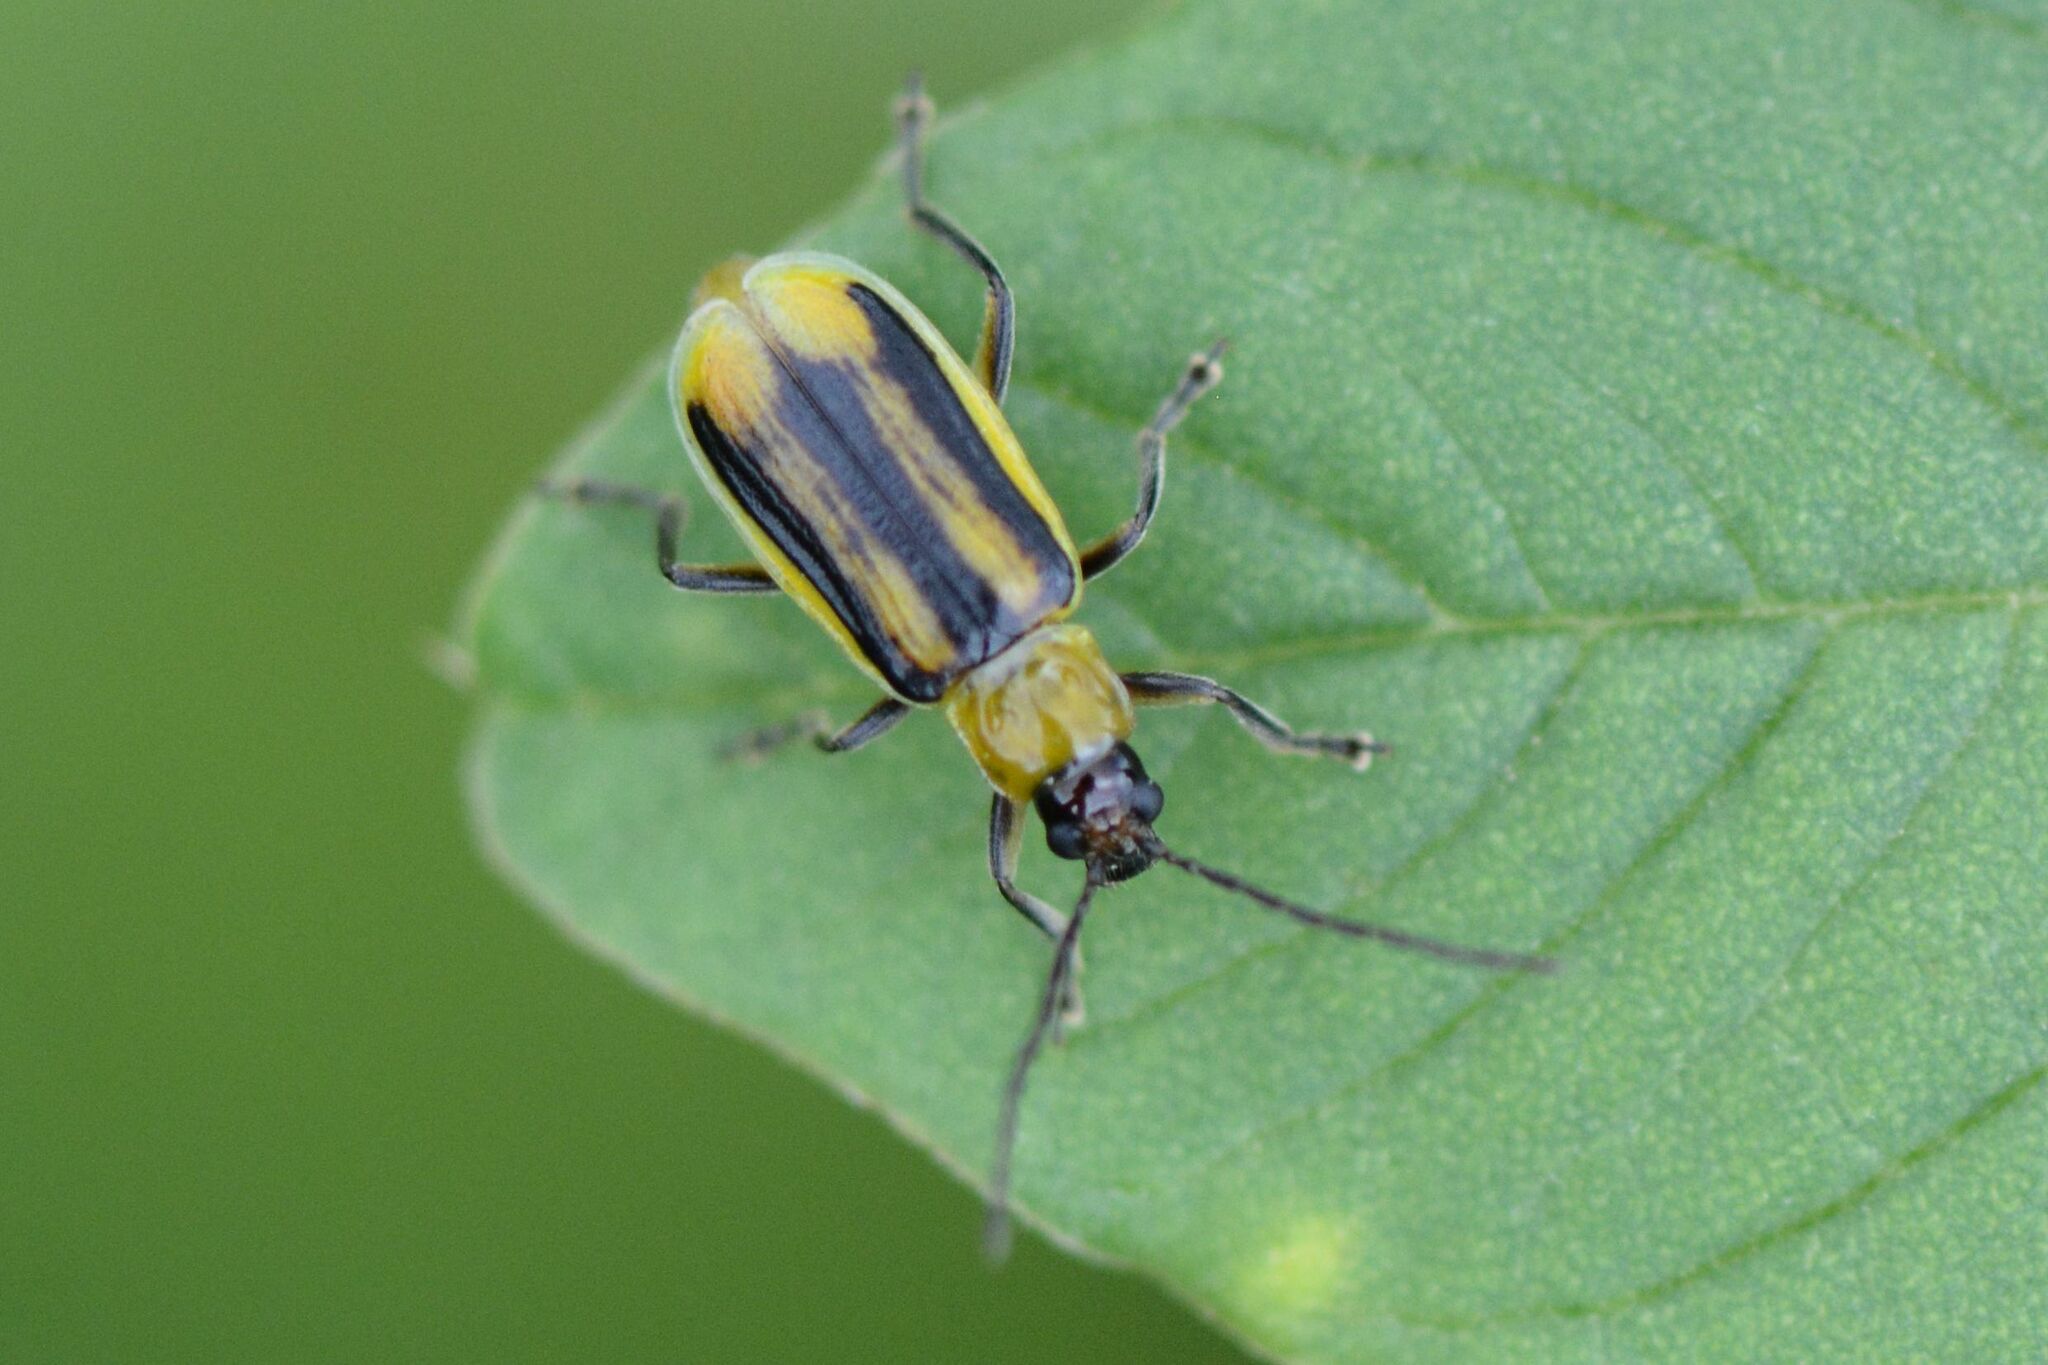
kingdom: Animalia
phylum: Arthropoda
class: Insecta
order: Coleoptera
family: Chrysomelidae
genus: Diabrotica
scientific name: Diabrotica virgifera
